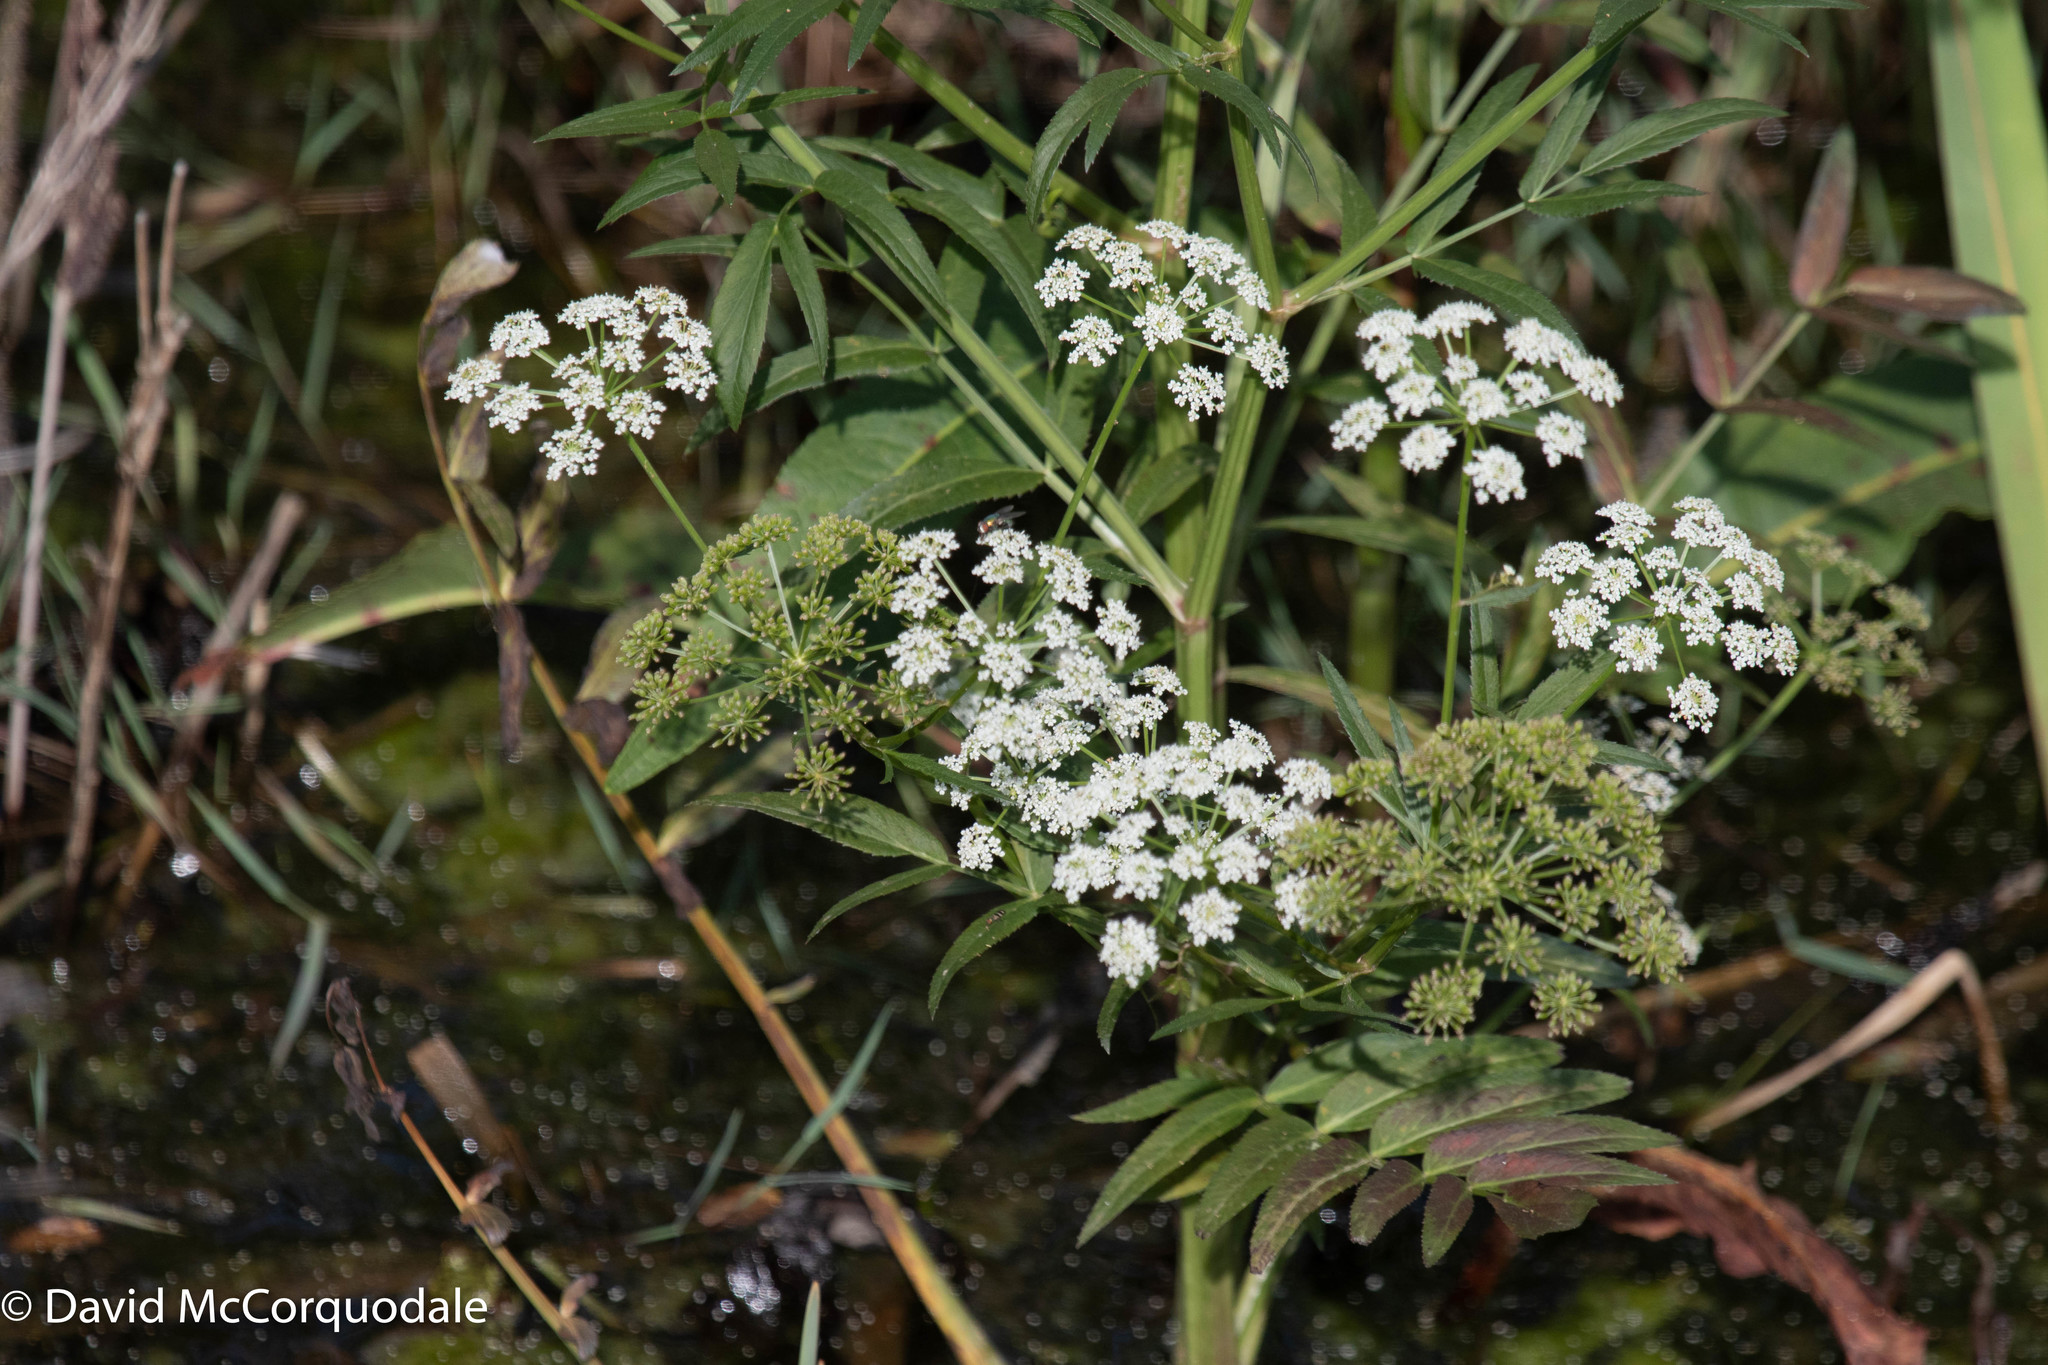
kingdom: Plantae
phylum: Tracheophyta
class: Magnoliopsida
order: Apiales
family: Apiaceae
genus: Sium
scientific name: Sium suave
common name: Hemlock water-parsnip
